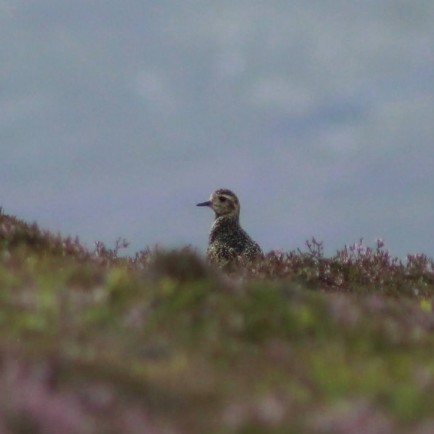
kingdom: Animalia
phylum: Chordata
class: Aves
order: Charadriiformes
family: Charadriidae
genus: Pluvialis
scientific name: Pluvialis apricaria
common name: European golden plover
